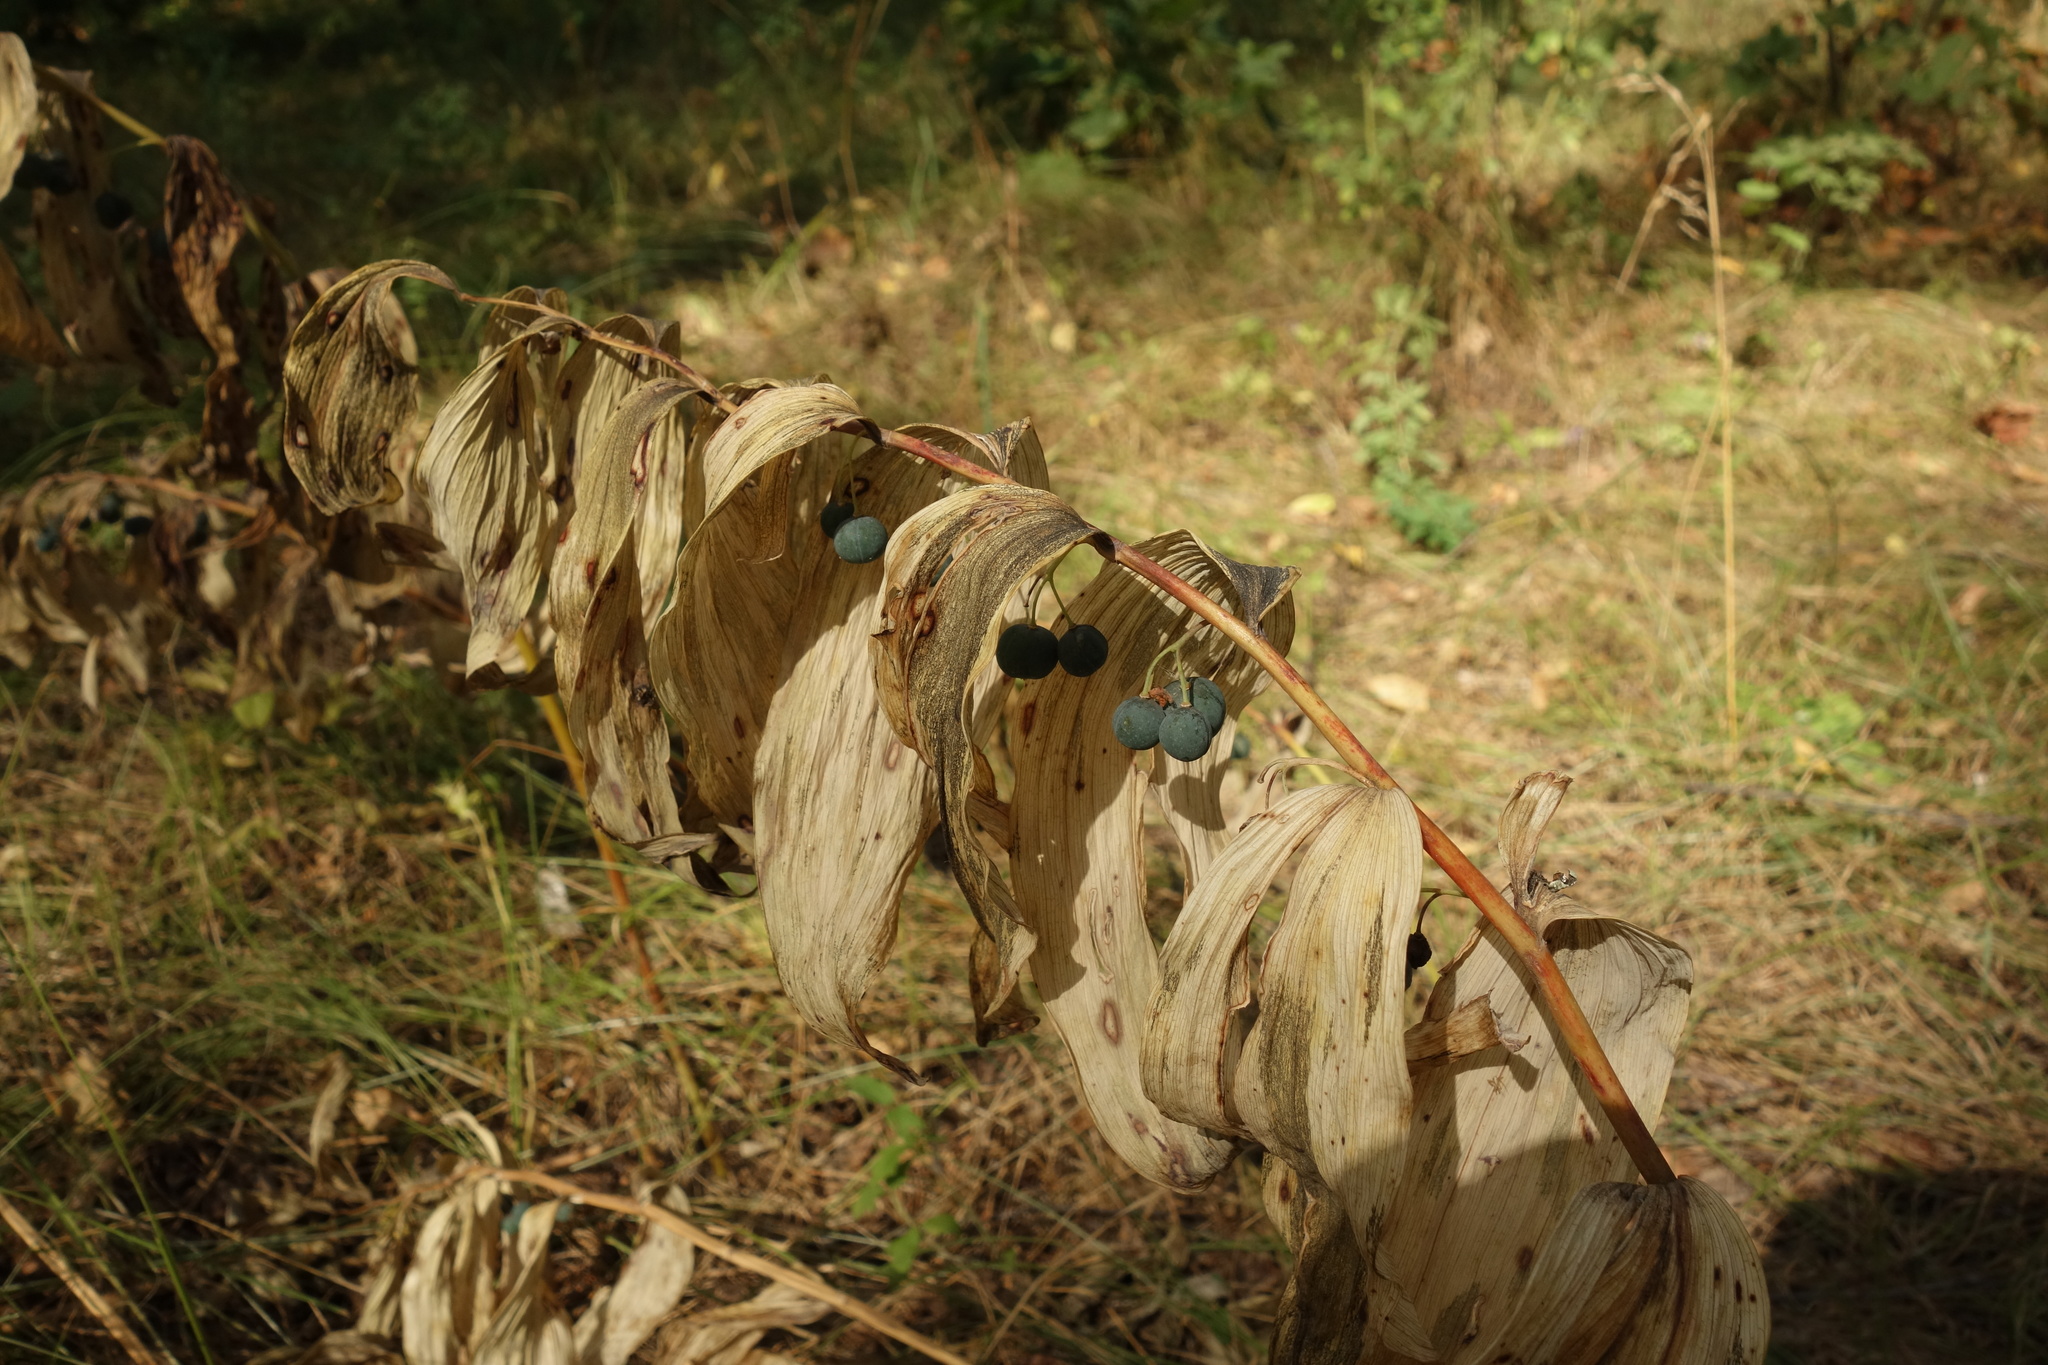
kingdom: Plantae
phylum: Tracheophyta
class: Liliopsida
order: Asparagales
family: Asparagaceae
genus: Polygonatum
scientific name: Polygonatum multiflorum
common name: Solomon's-seal
